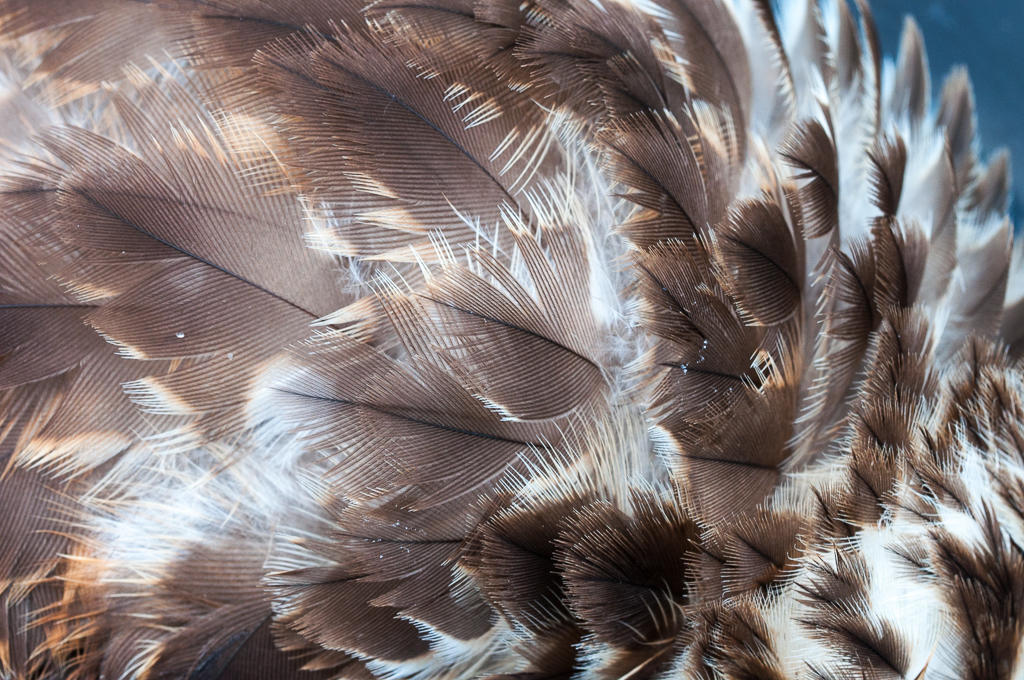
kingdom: Animalia
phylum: Chordata
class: Aves
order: Accipitriformes
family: Accipitridae
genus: Buteo
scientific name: Buteo buteo
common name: Common buzzard
